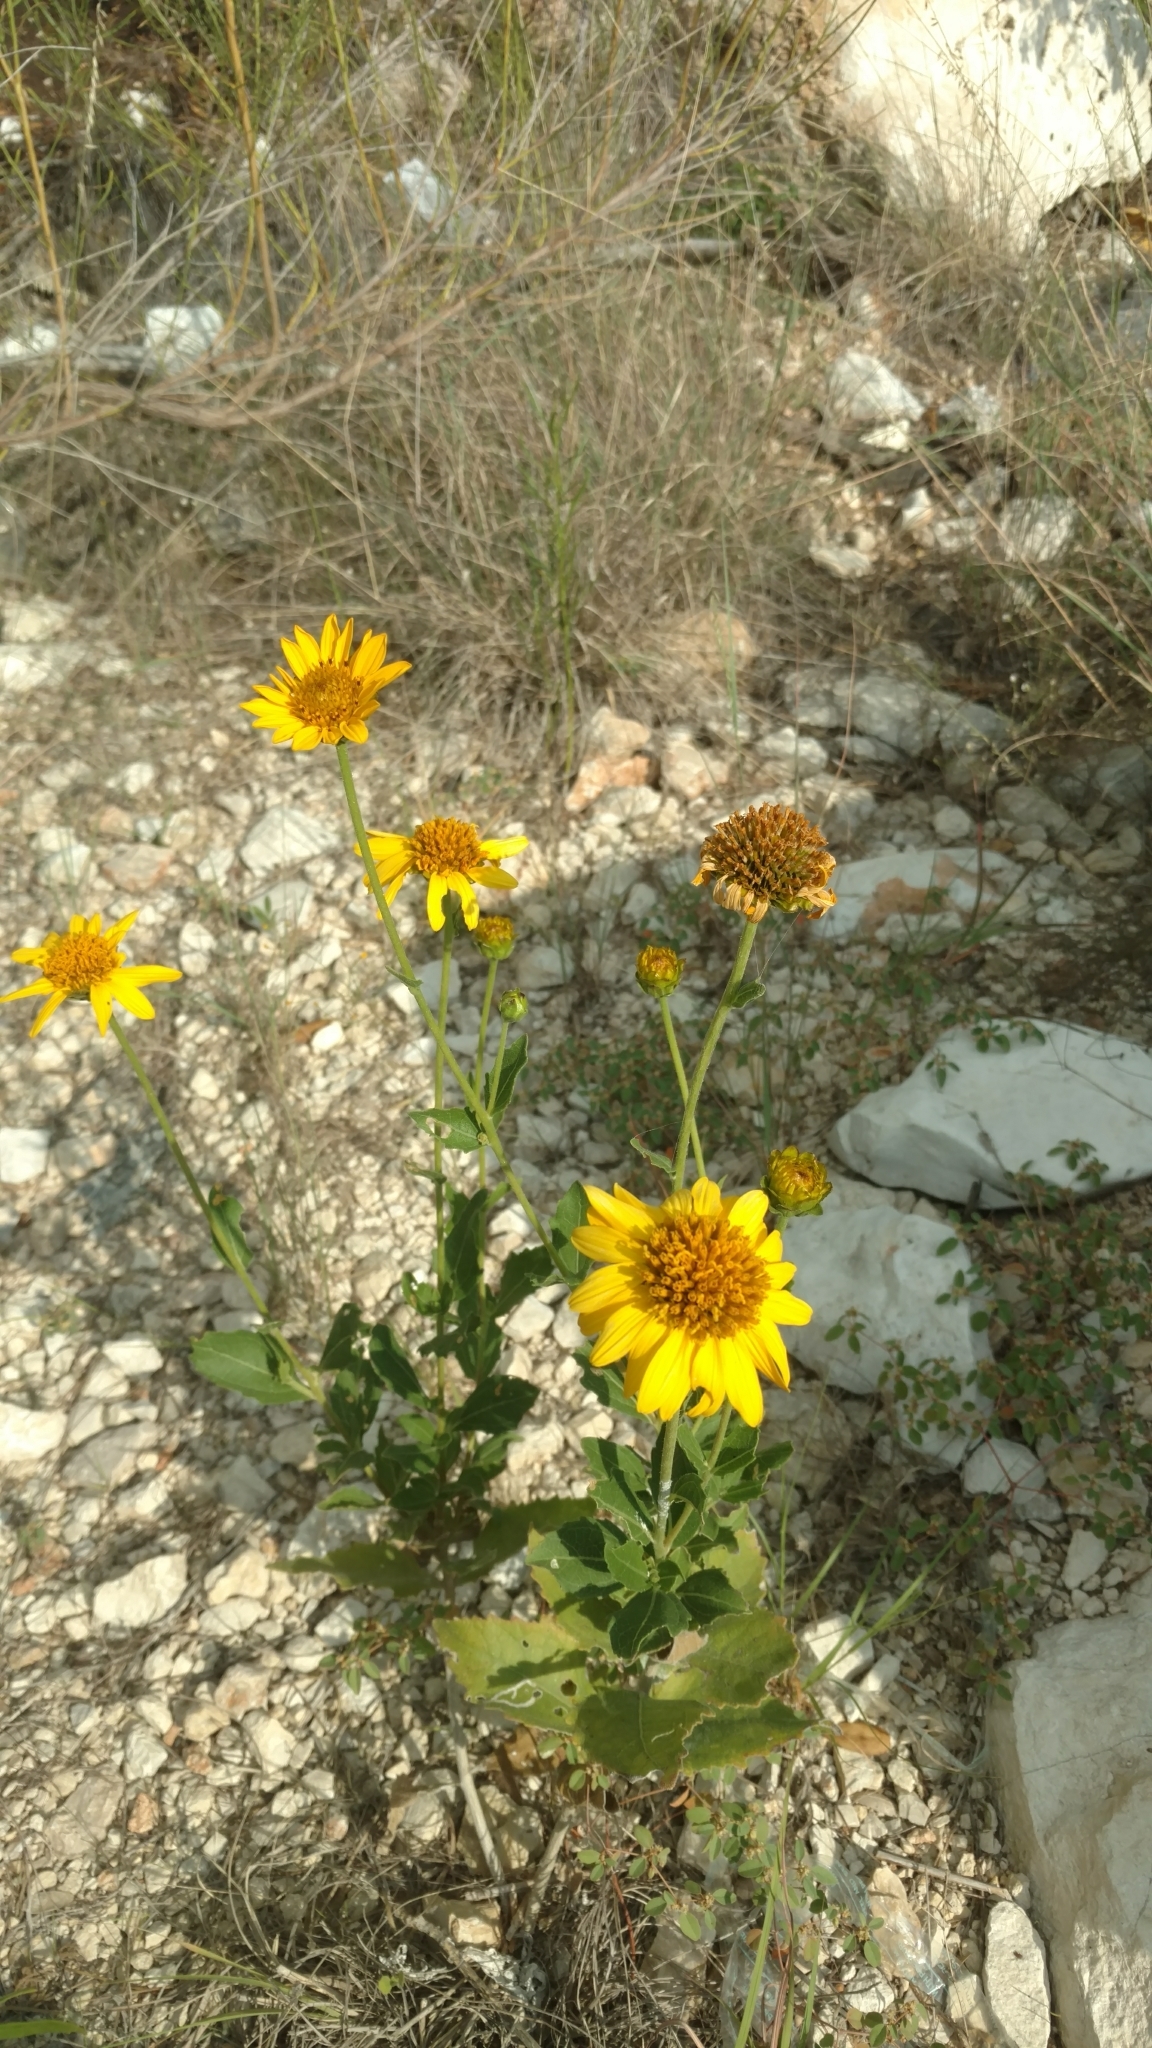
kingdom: Plantae
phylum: Tracheophyta
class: Magnoliopsida
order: Asterales
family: Asteraceae
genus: Verbesina
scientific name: Verbesina lindheimeri
